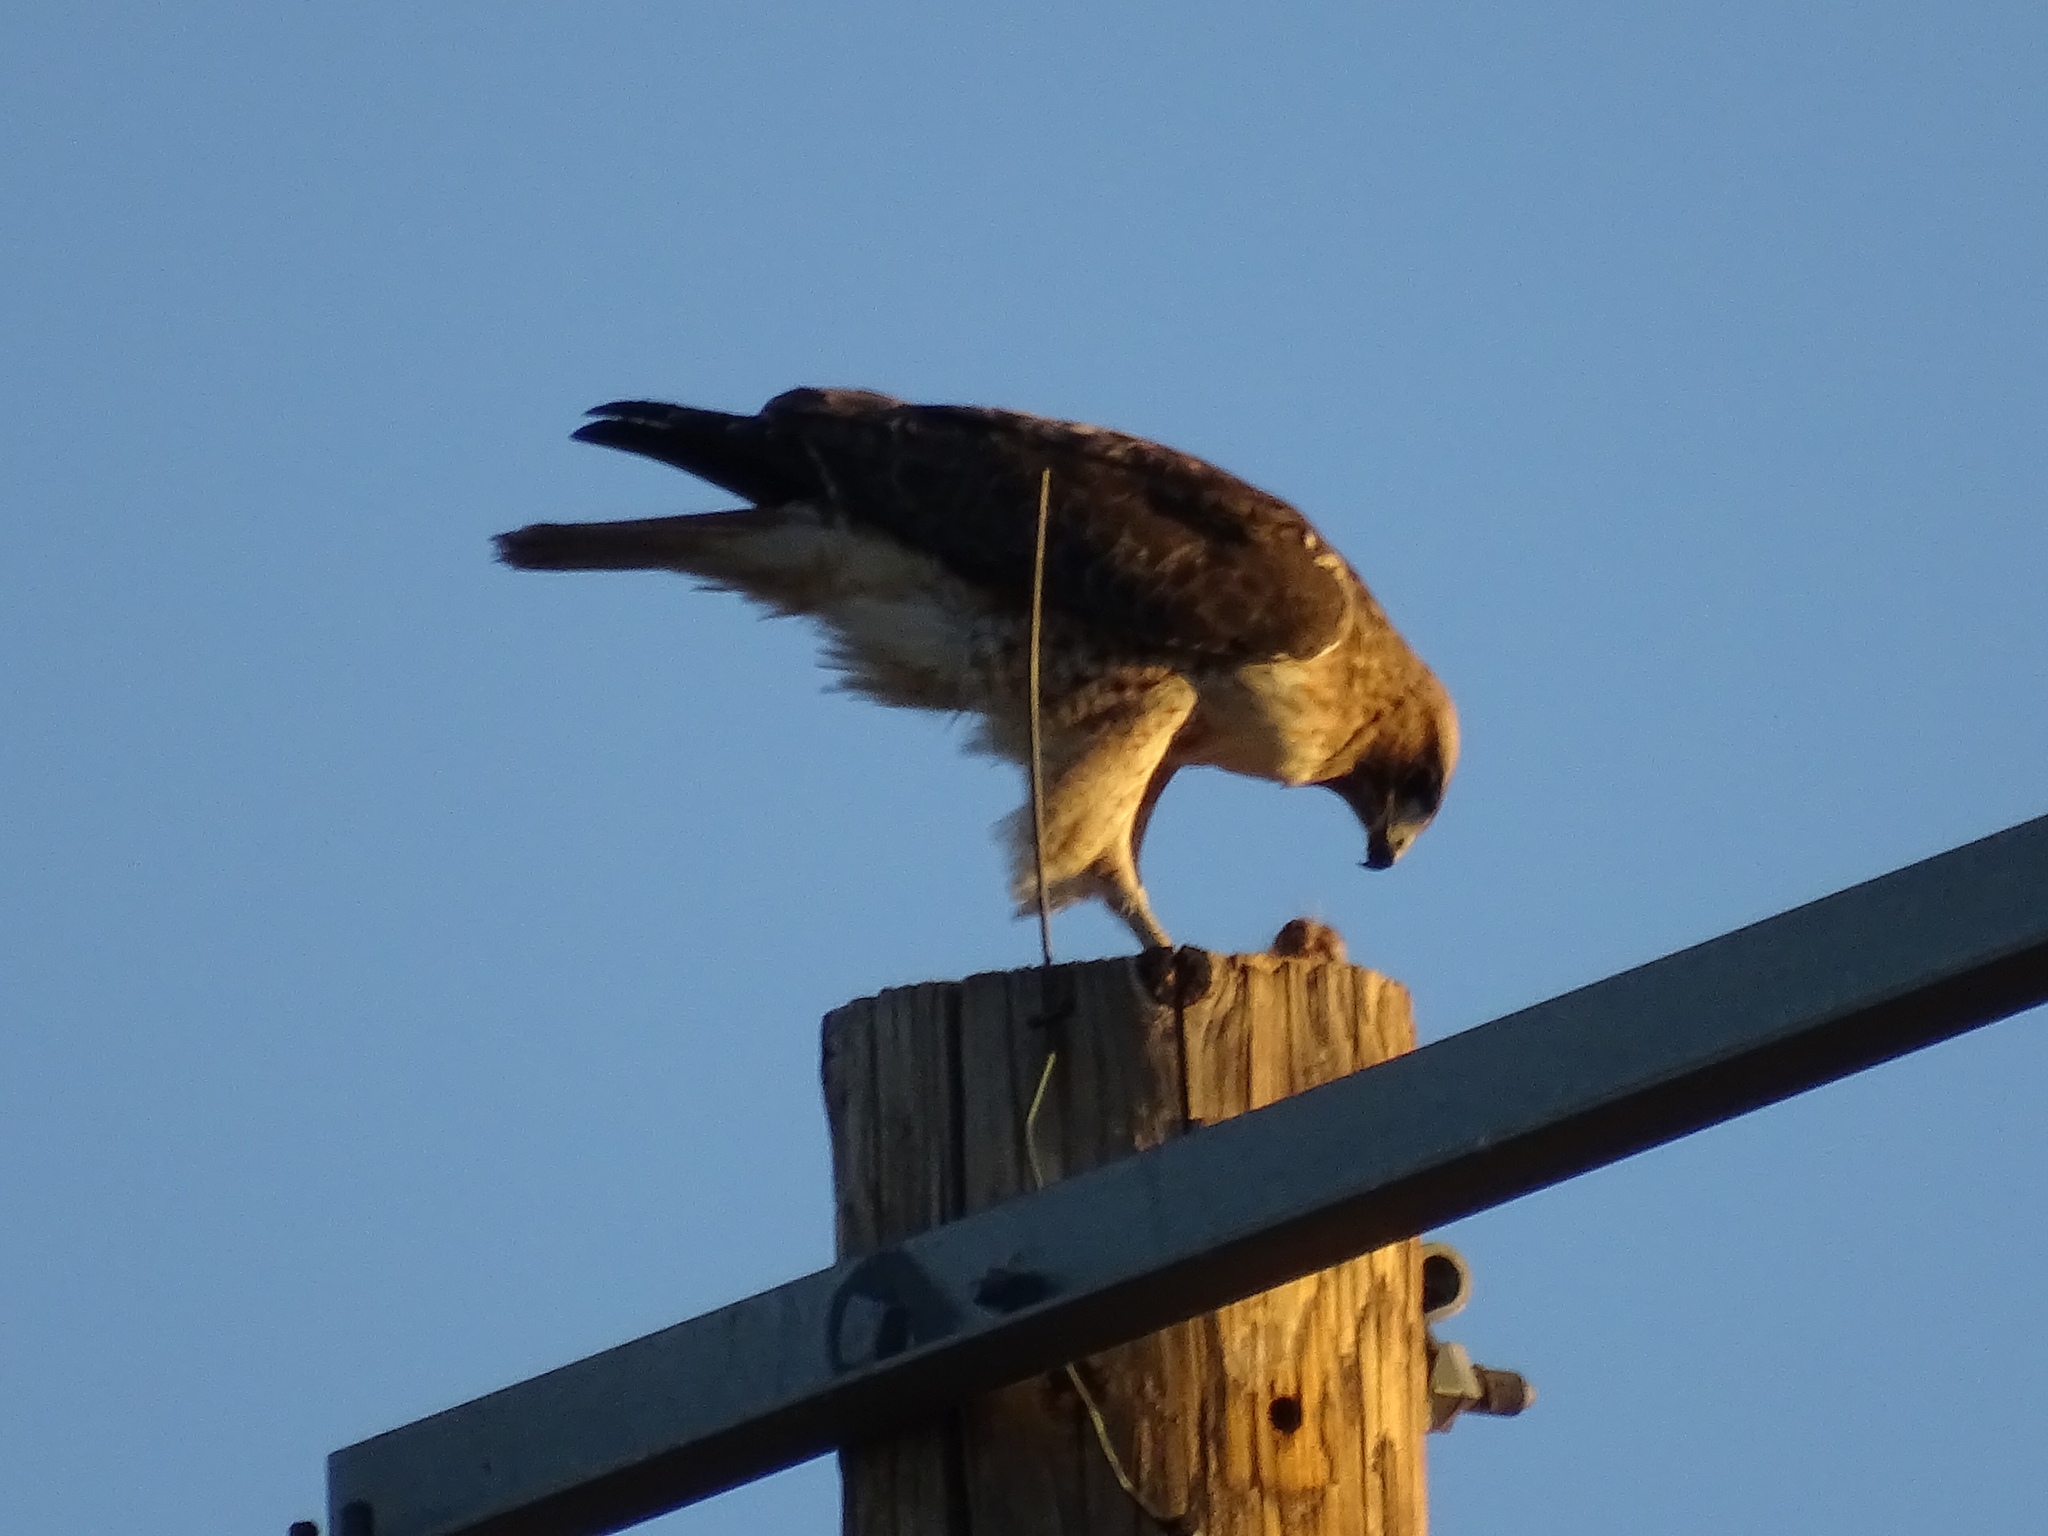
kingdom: Animalia
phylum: Chordata
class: Aves
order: Accipitriformes
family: Accipitridae
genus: Buteo
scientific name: Buteo jamaicensis
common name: Red-tailed hawk
